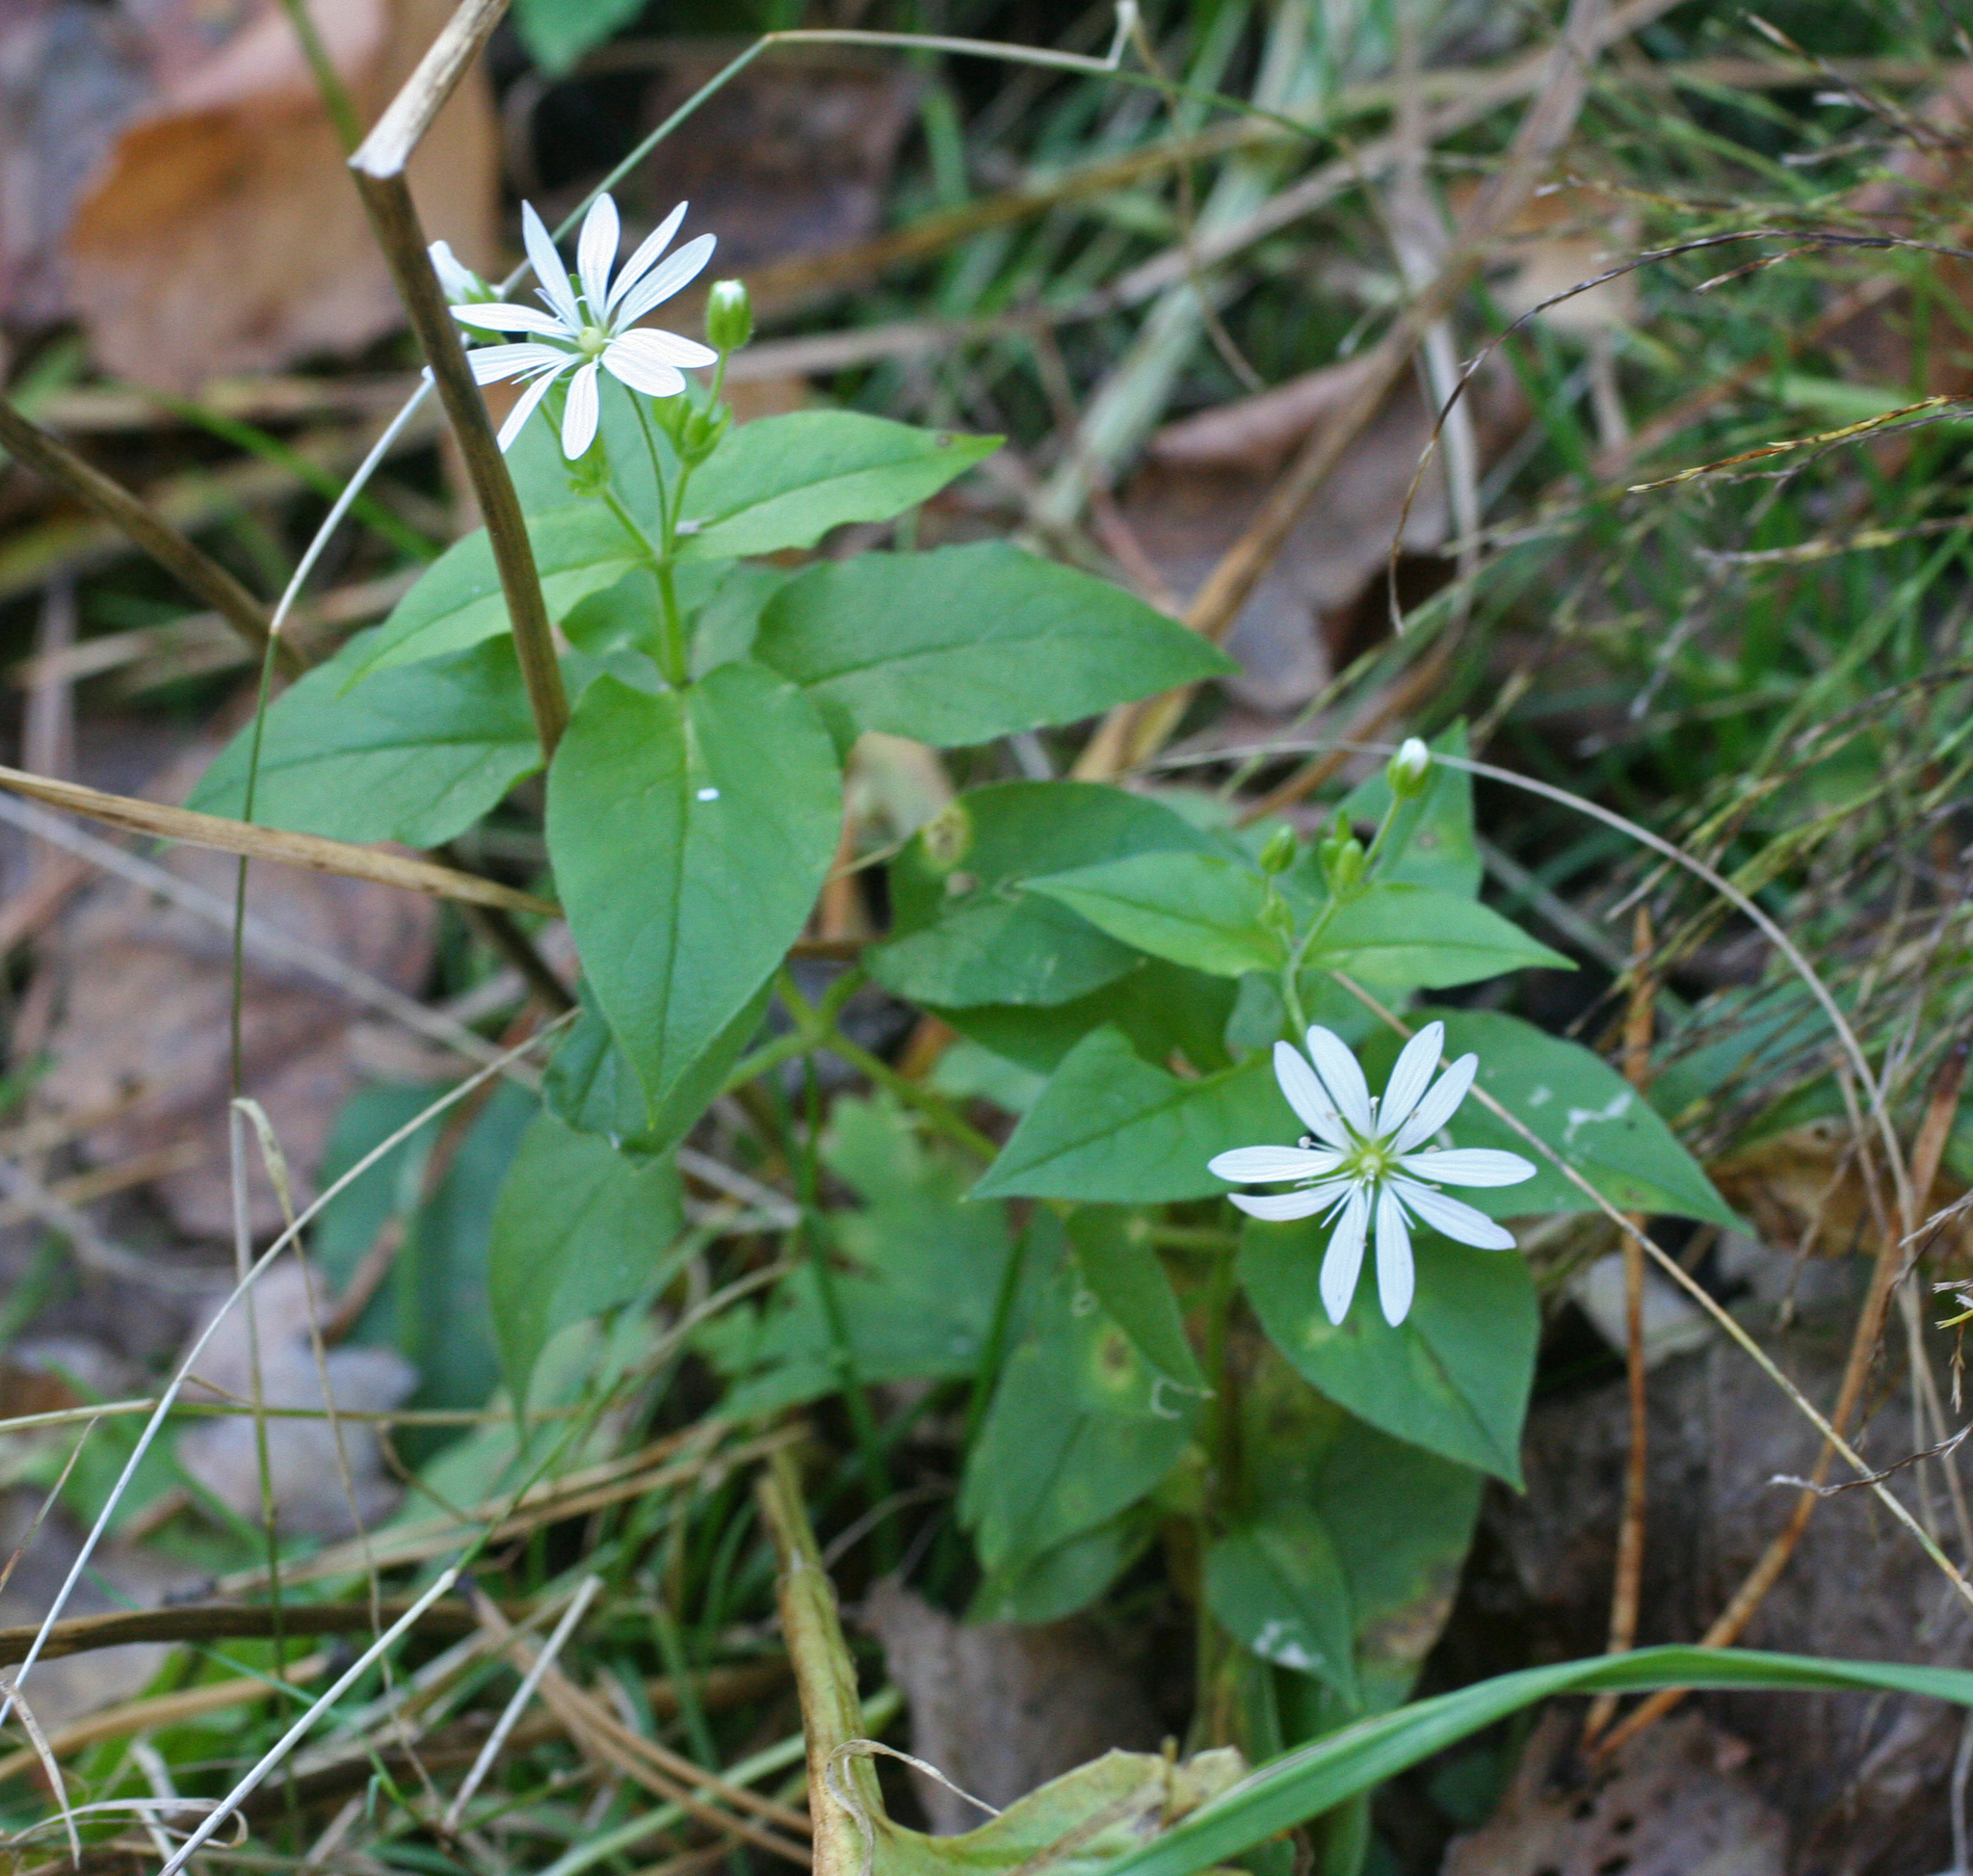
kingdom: Plantae
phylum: Tracheophyta
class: Magnoliopsida
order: Caryophyllales
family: Caryophyllaceae
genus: Stellaria
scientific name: Stellaria bungeana
